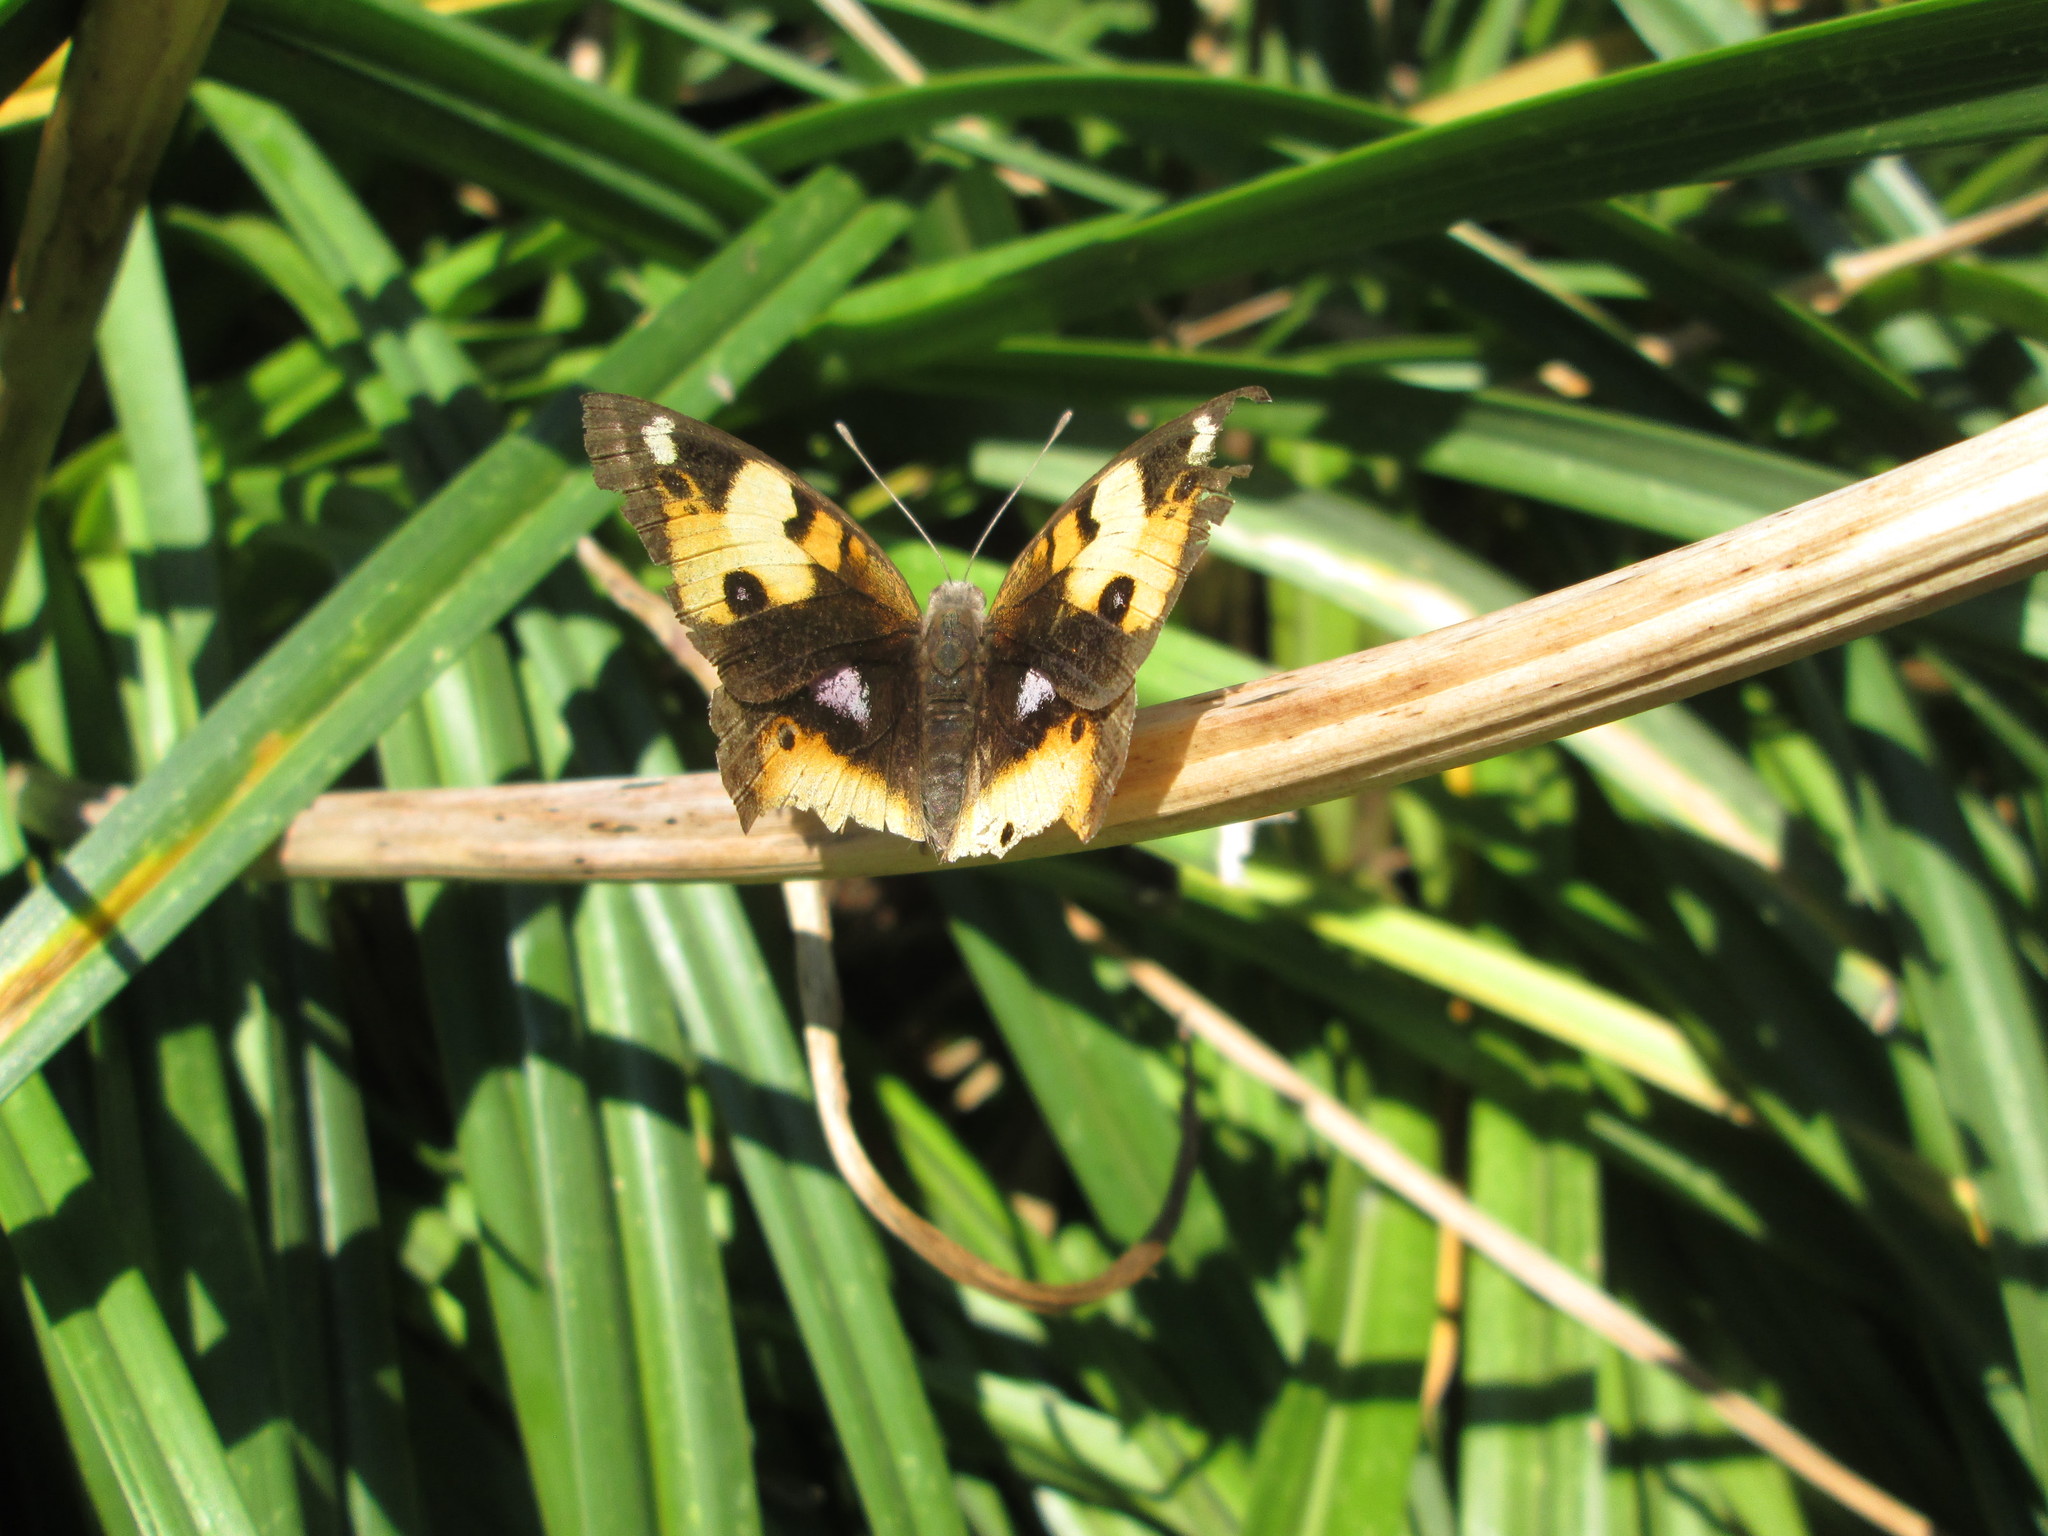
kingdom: Animalia
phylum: Arthropoda
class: Insecta
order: Lepidoptera
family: Nymphalidae
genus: Junonia
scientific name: Junonia hierta
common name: Yellow pansy
